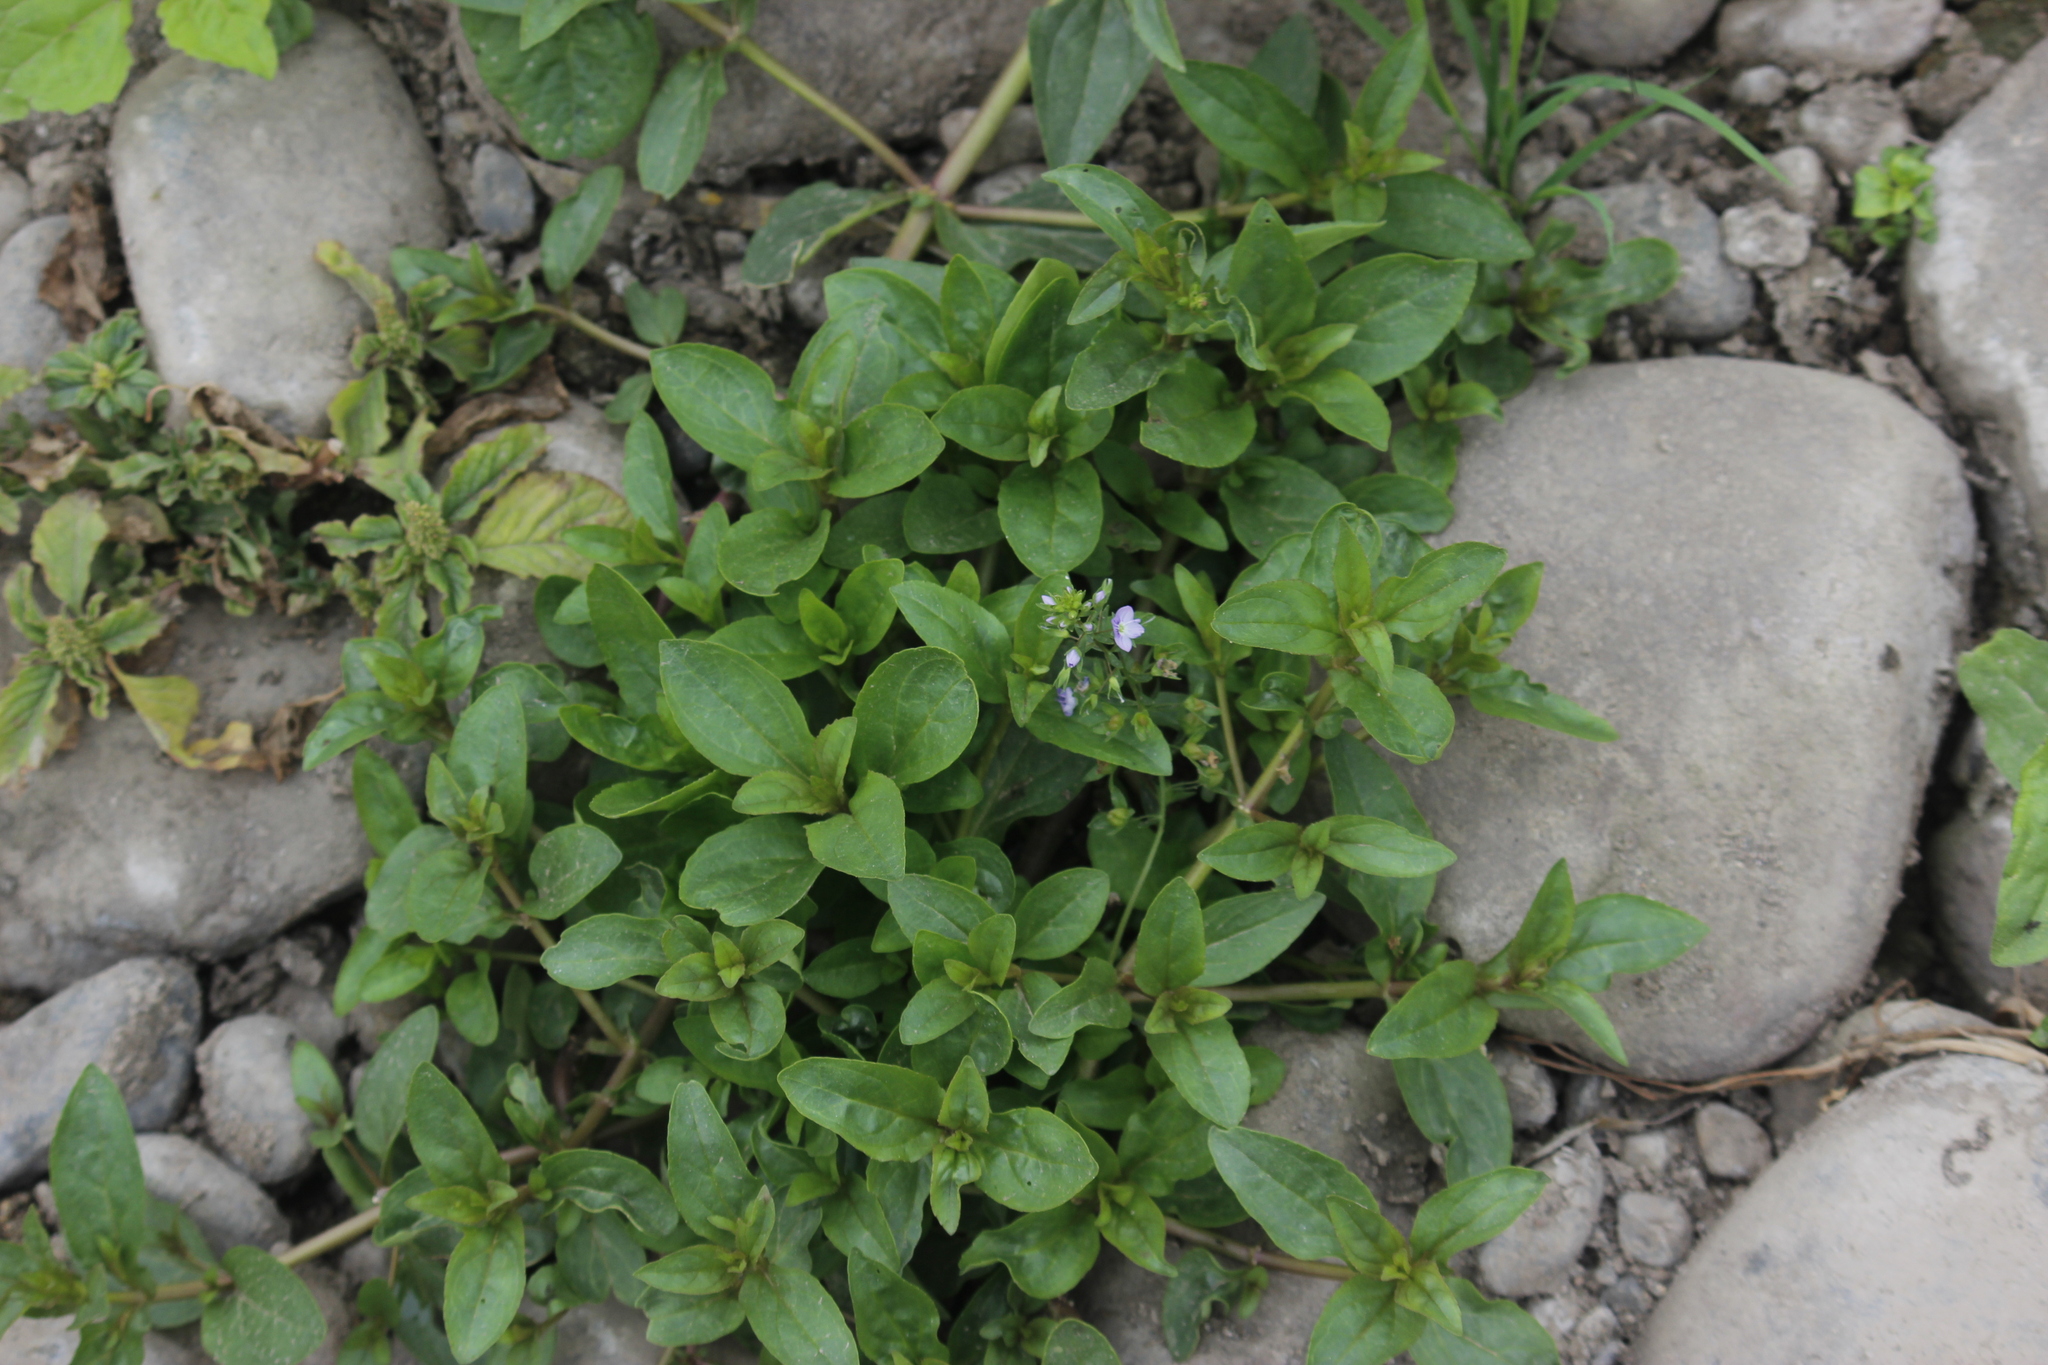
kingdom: Plantae
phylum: Tracheophyta
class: Magnoliopsida
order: Lamiales
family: Plantaginaceae
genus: Veronica
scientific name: Veronica anagallis-aquatica
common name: Water speedwell
